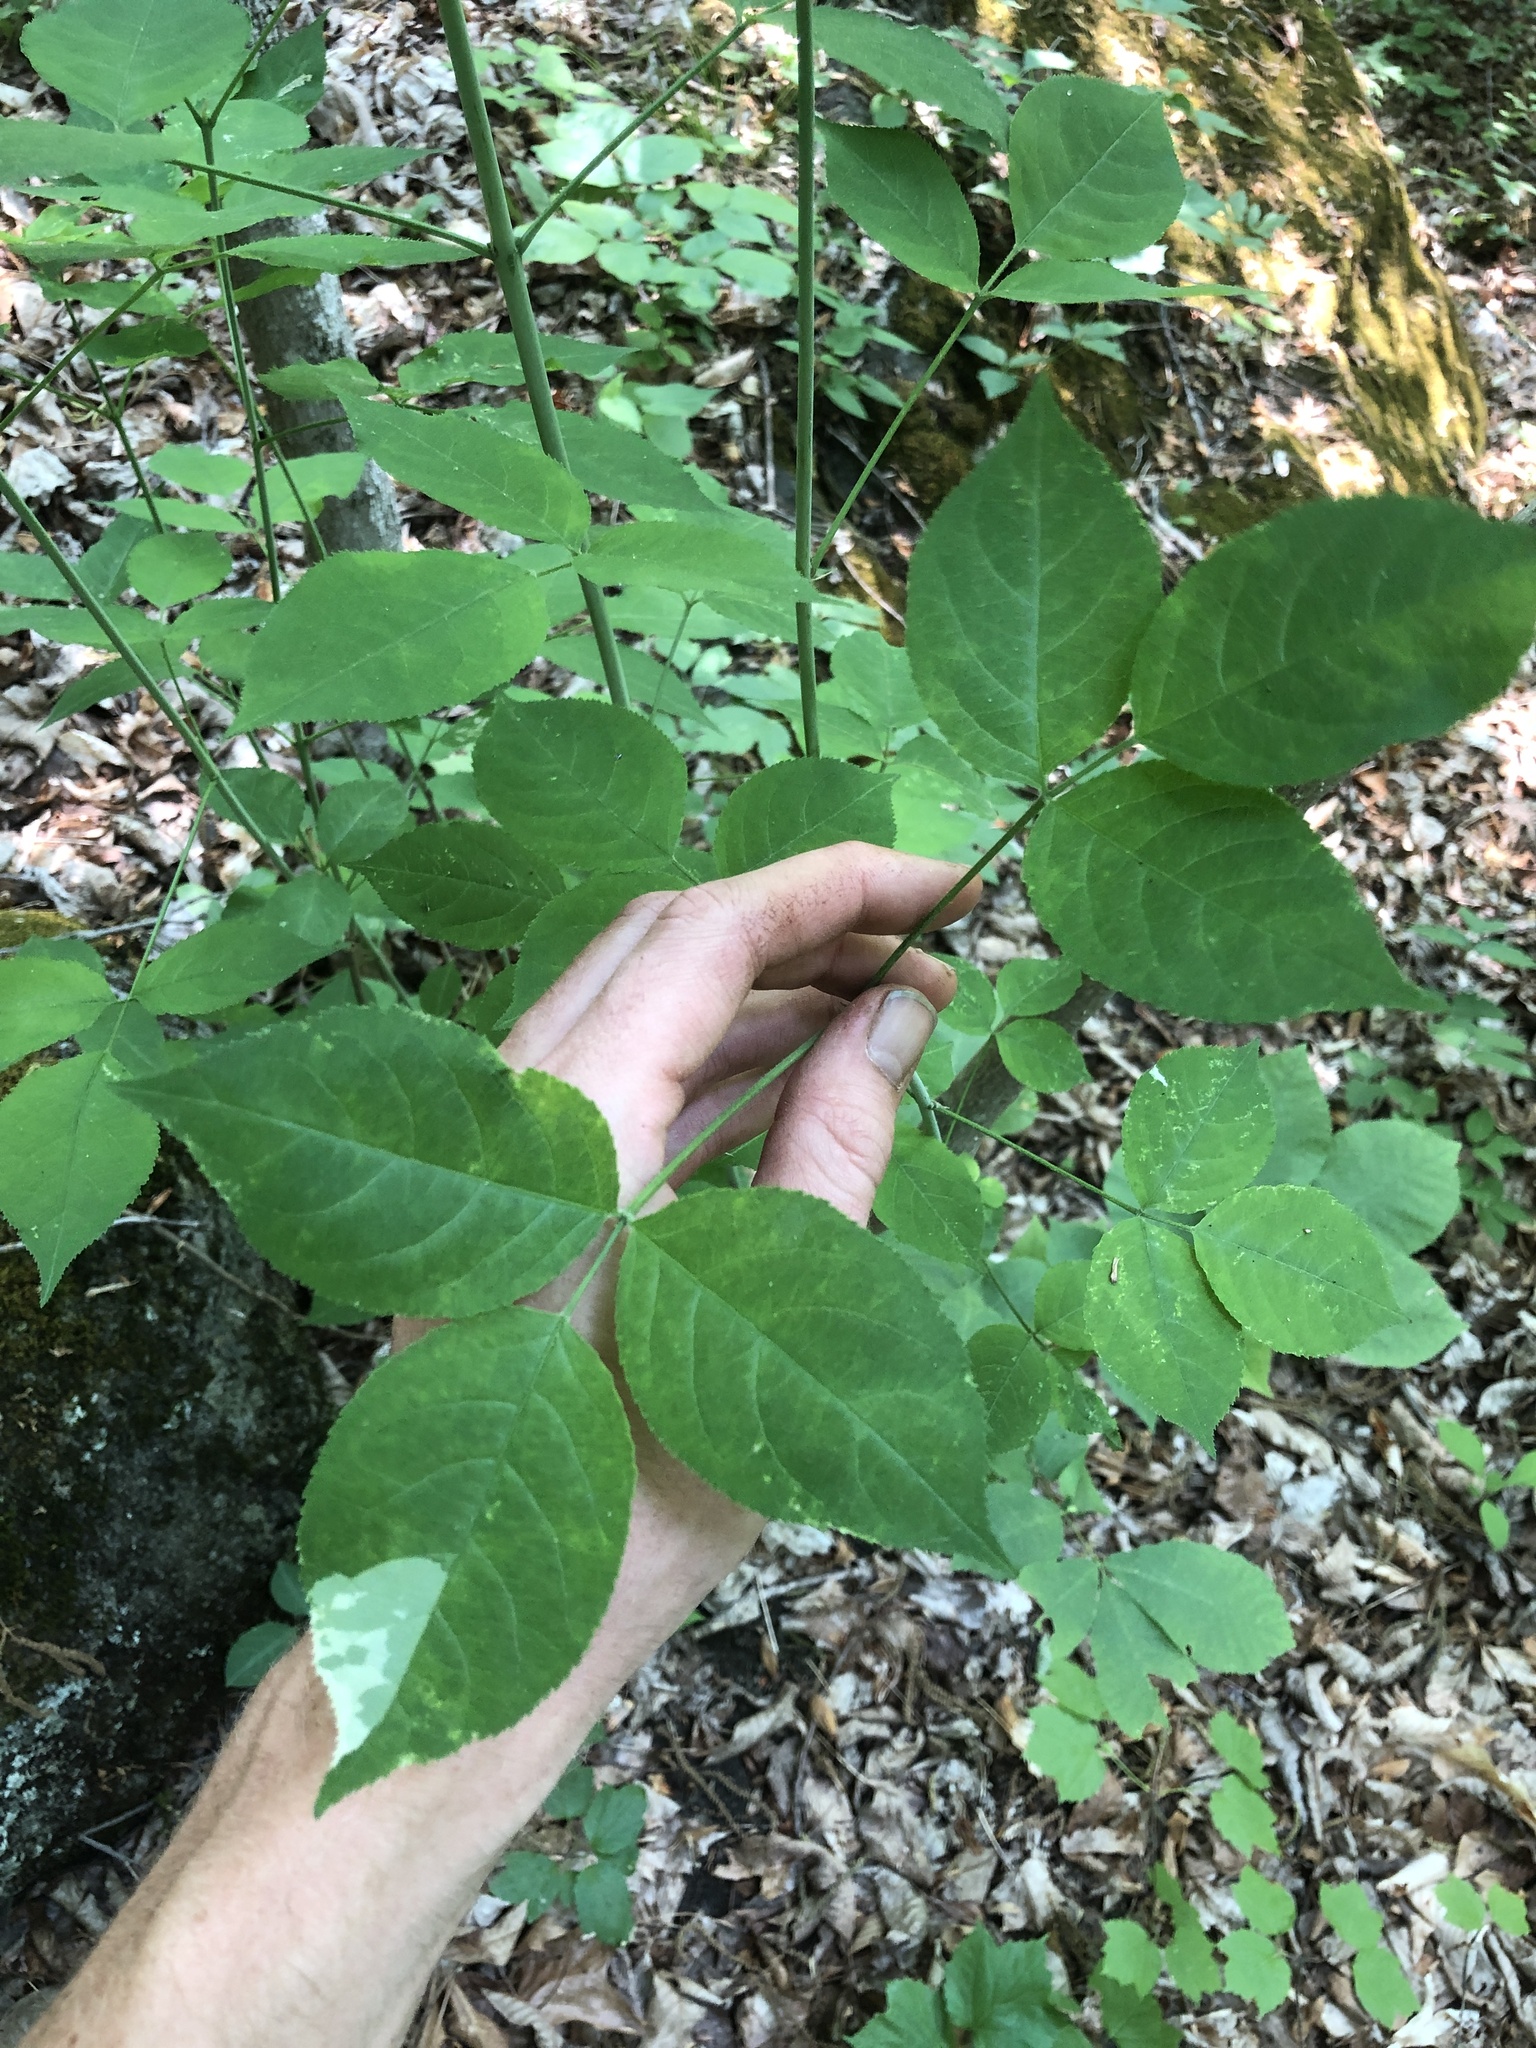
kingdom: Plantae
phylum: Tracheophyta
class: Magnoliopsida
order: Crossosomatales
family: Staphyleaceae
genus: Staphylea
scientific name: Staphylea trifolia
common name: American bladdernut
